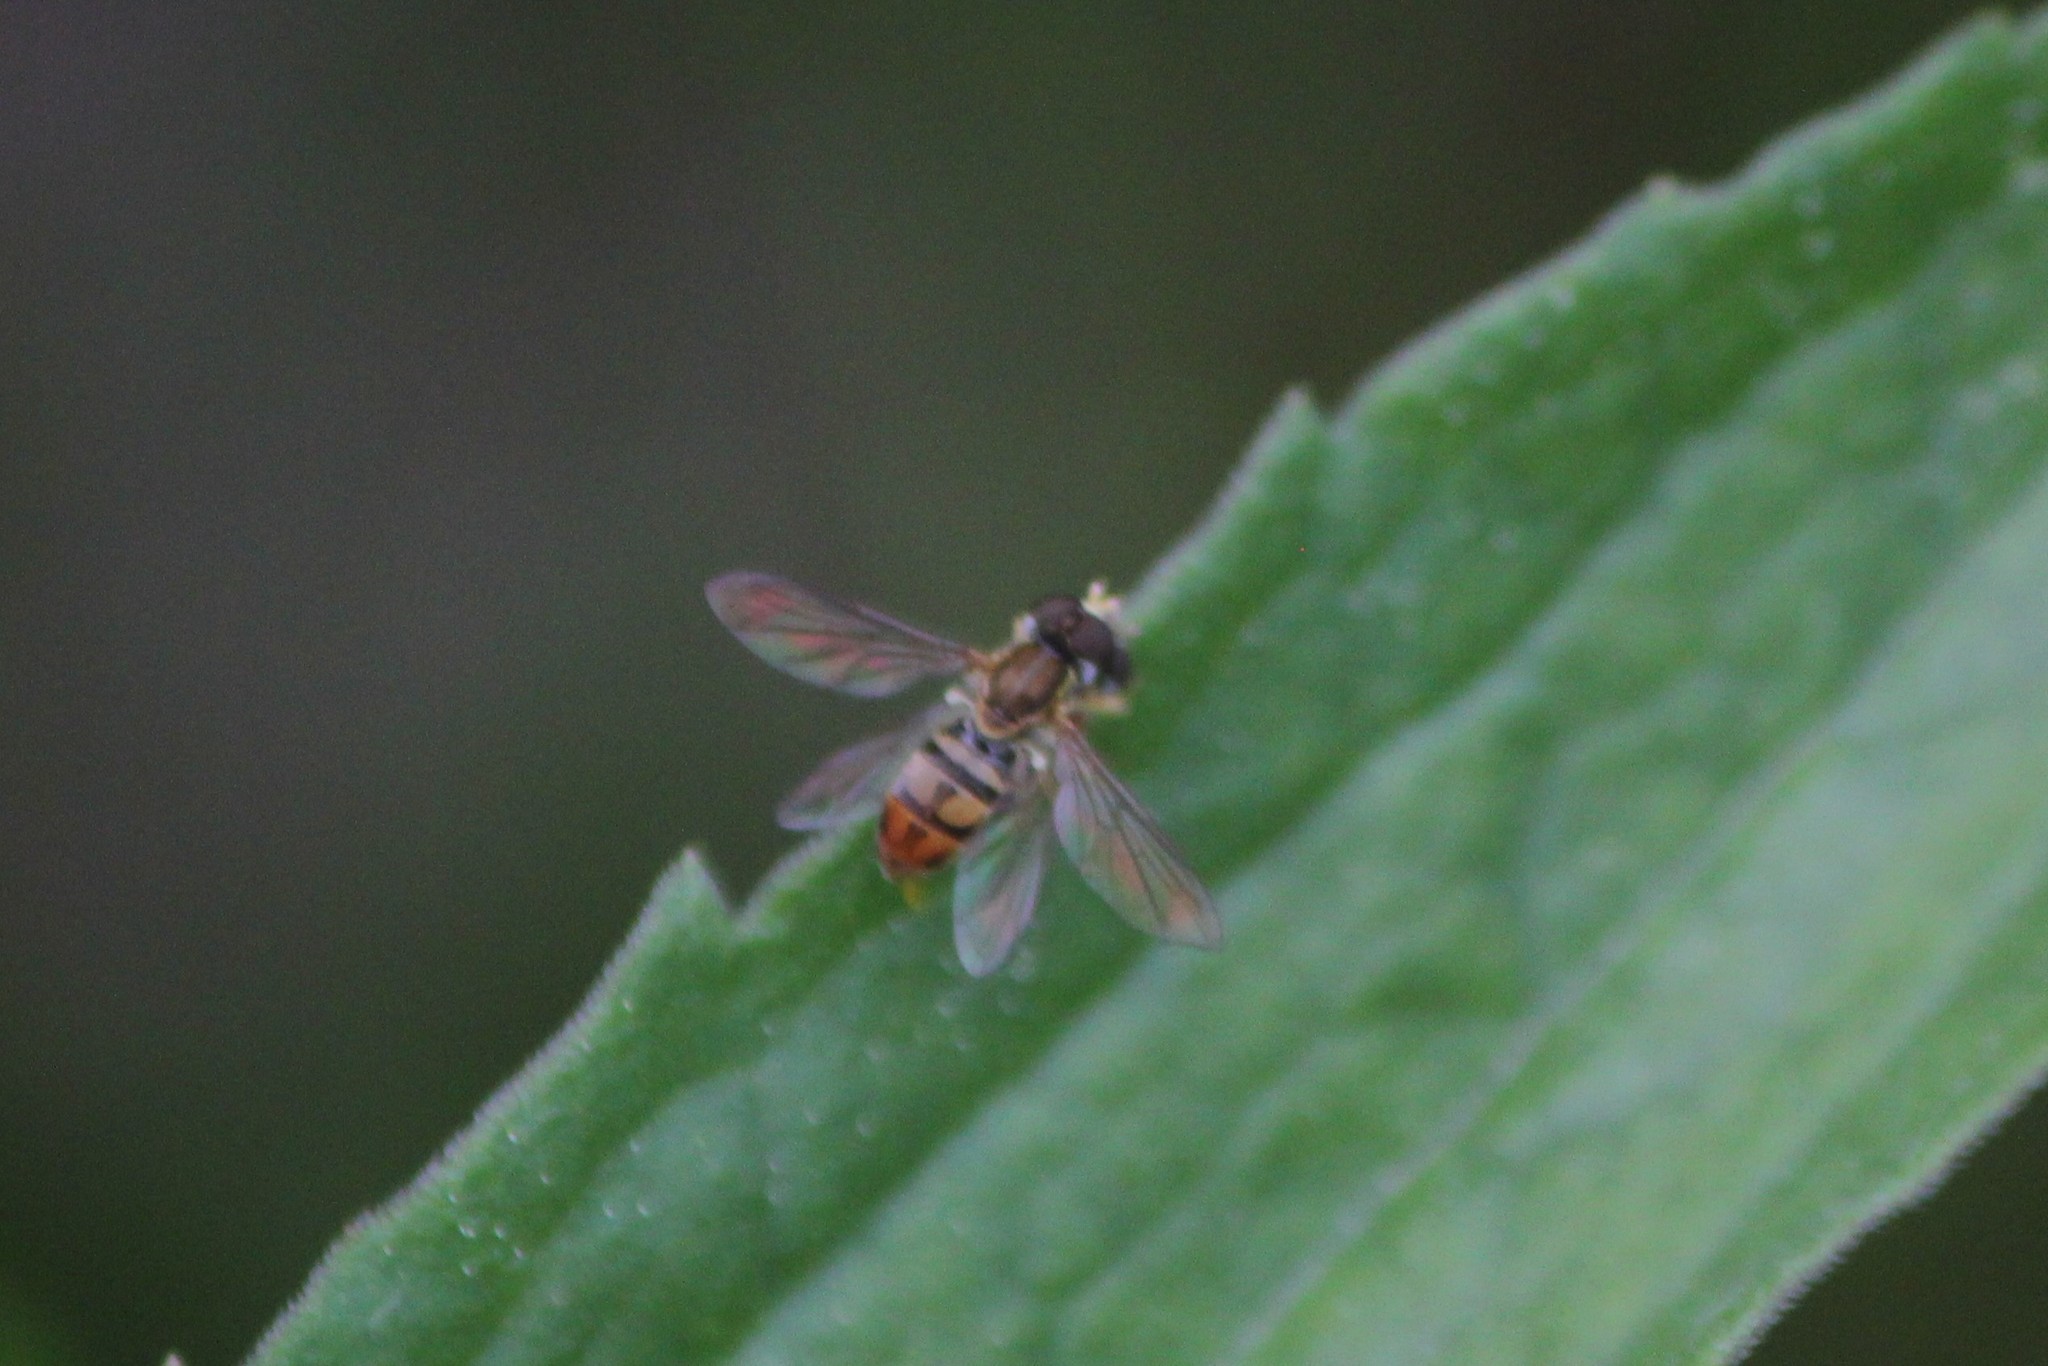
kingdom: Animalia
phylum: Arthropoda
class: Insecta
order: Diptera
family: Syrphidae
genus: Toxomerus
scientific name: Toxomerus marginatus
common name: Syrphid fly
